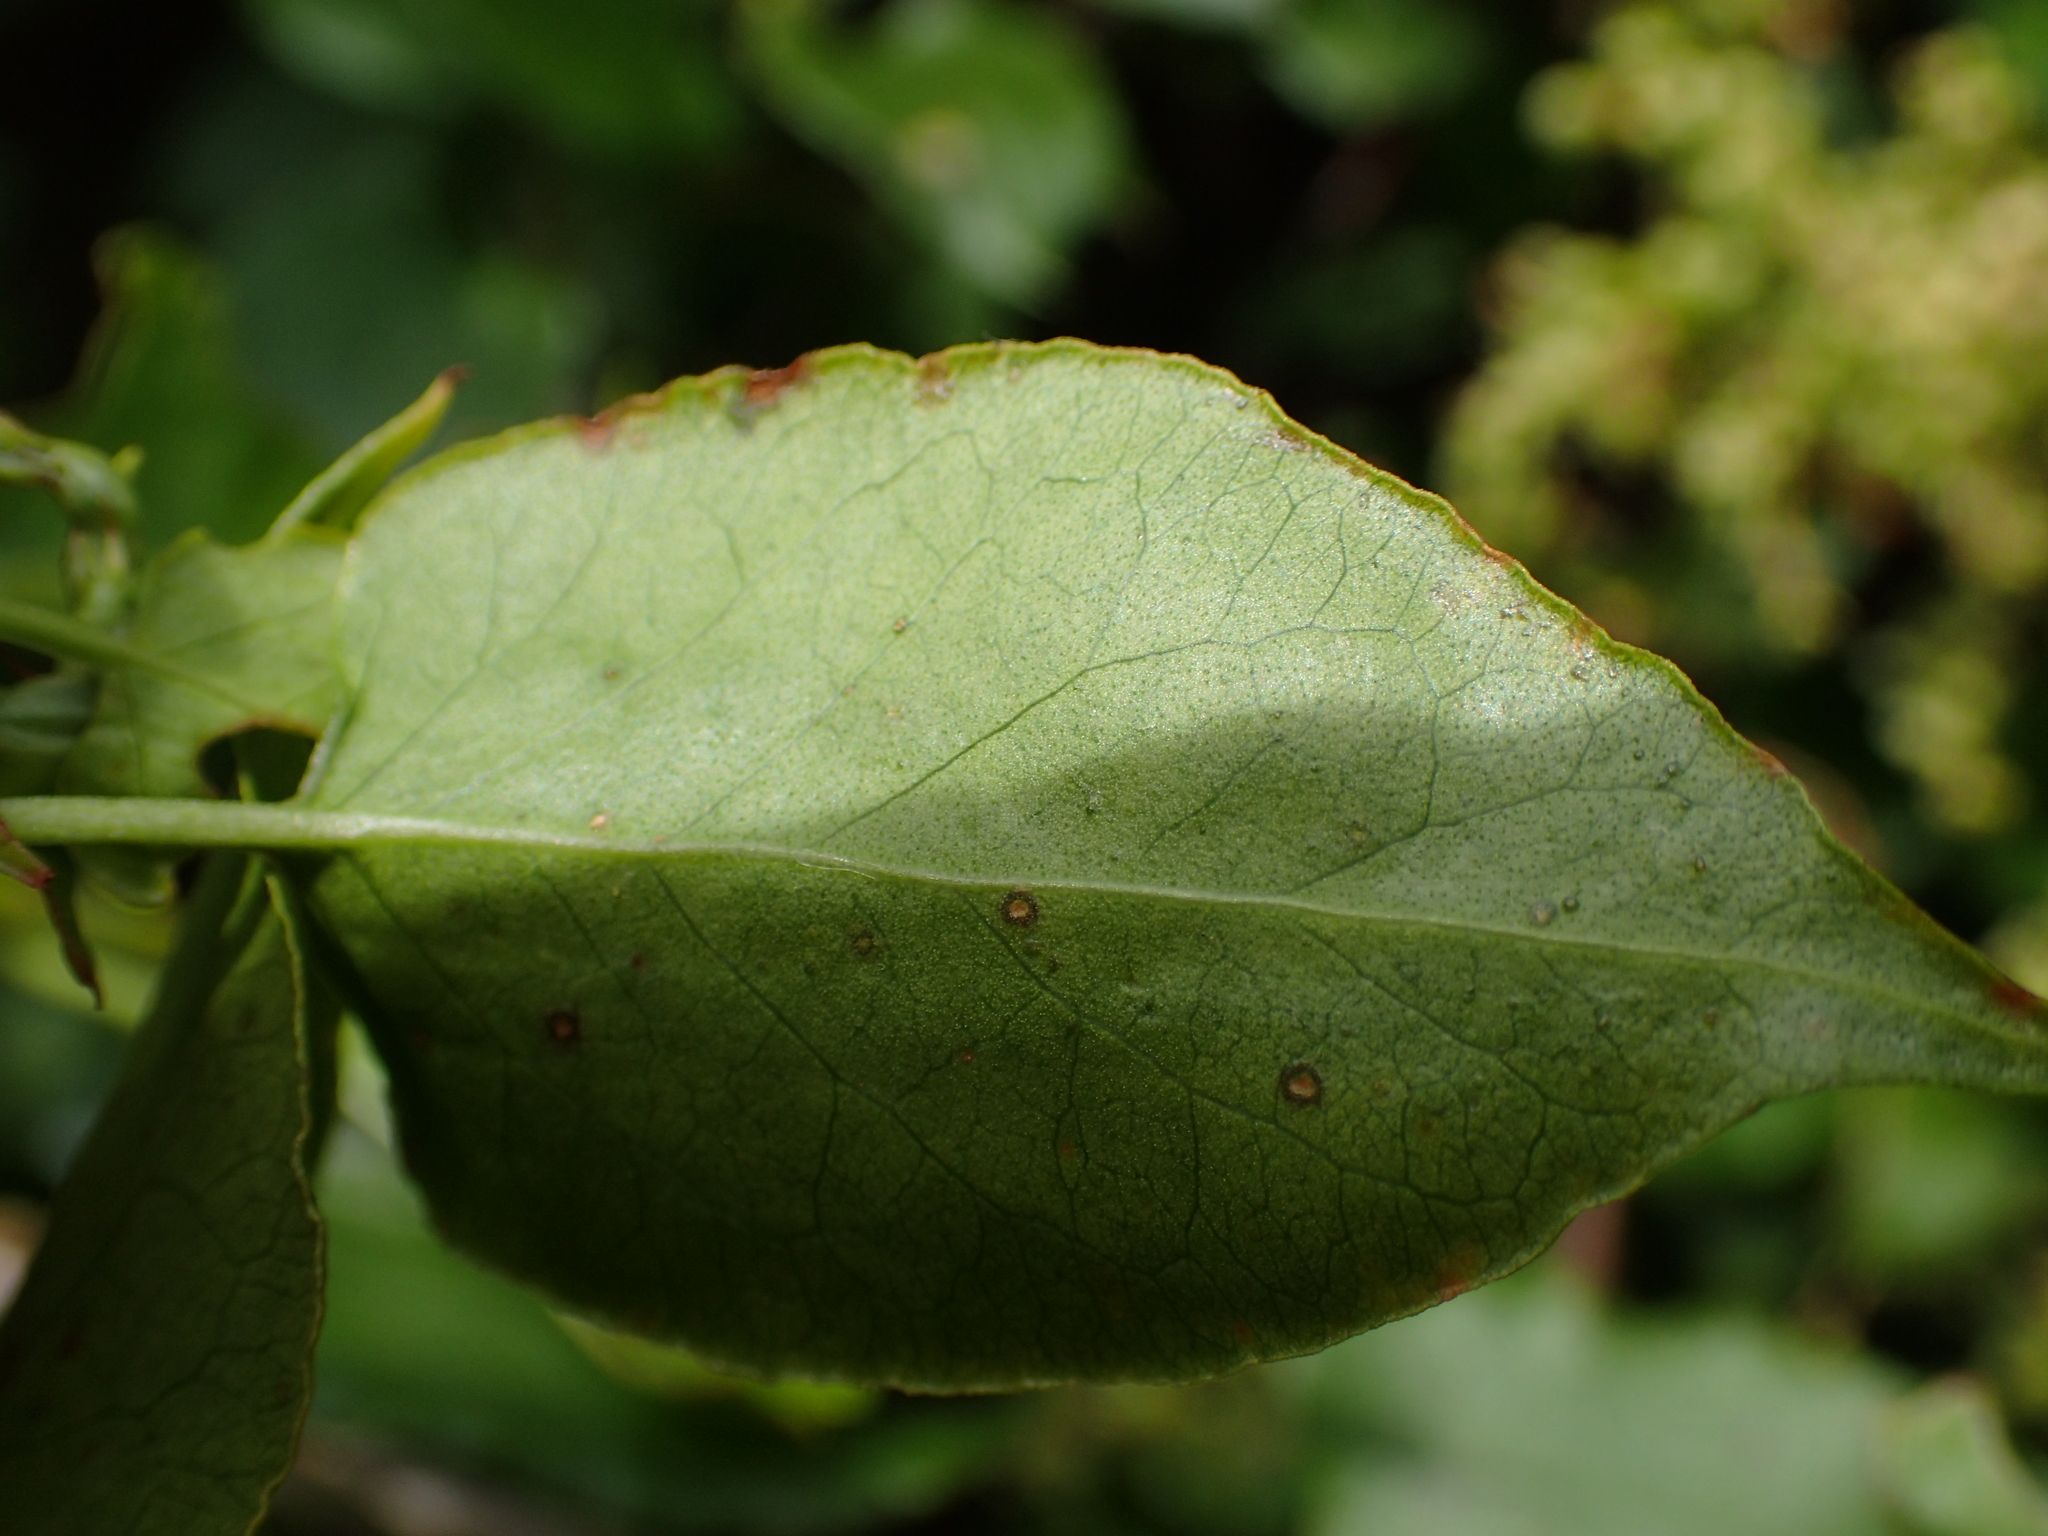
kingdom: Plantae
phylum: Tracheophyta
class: Magnoliopsida
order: Caryophyllales
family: Polygonaceae
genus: Muehlenbeckia
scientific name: Muehlenbeckia australis
